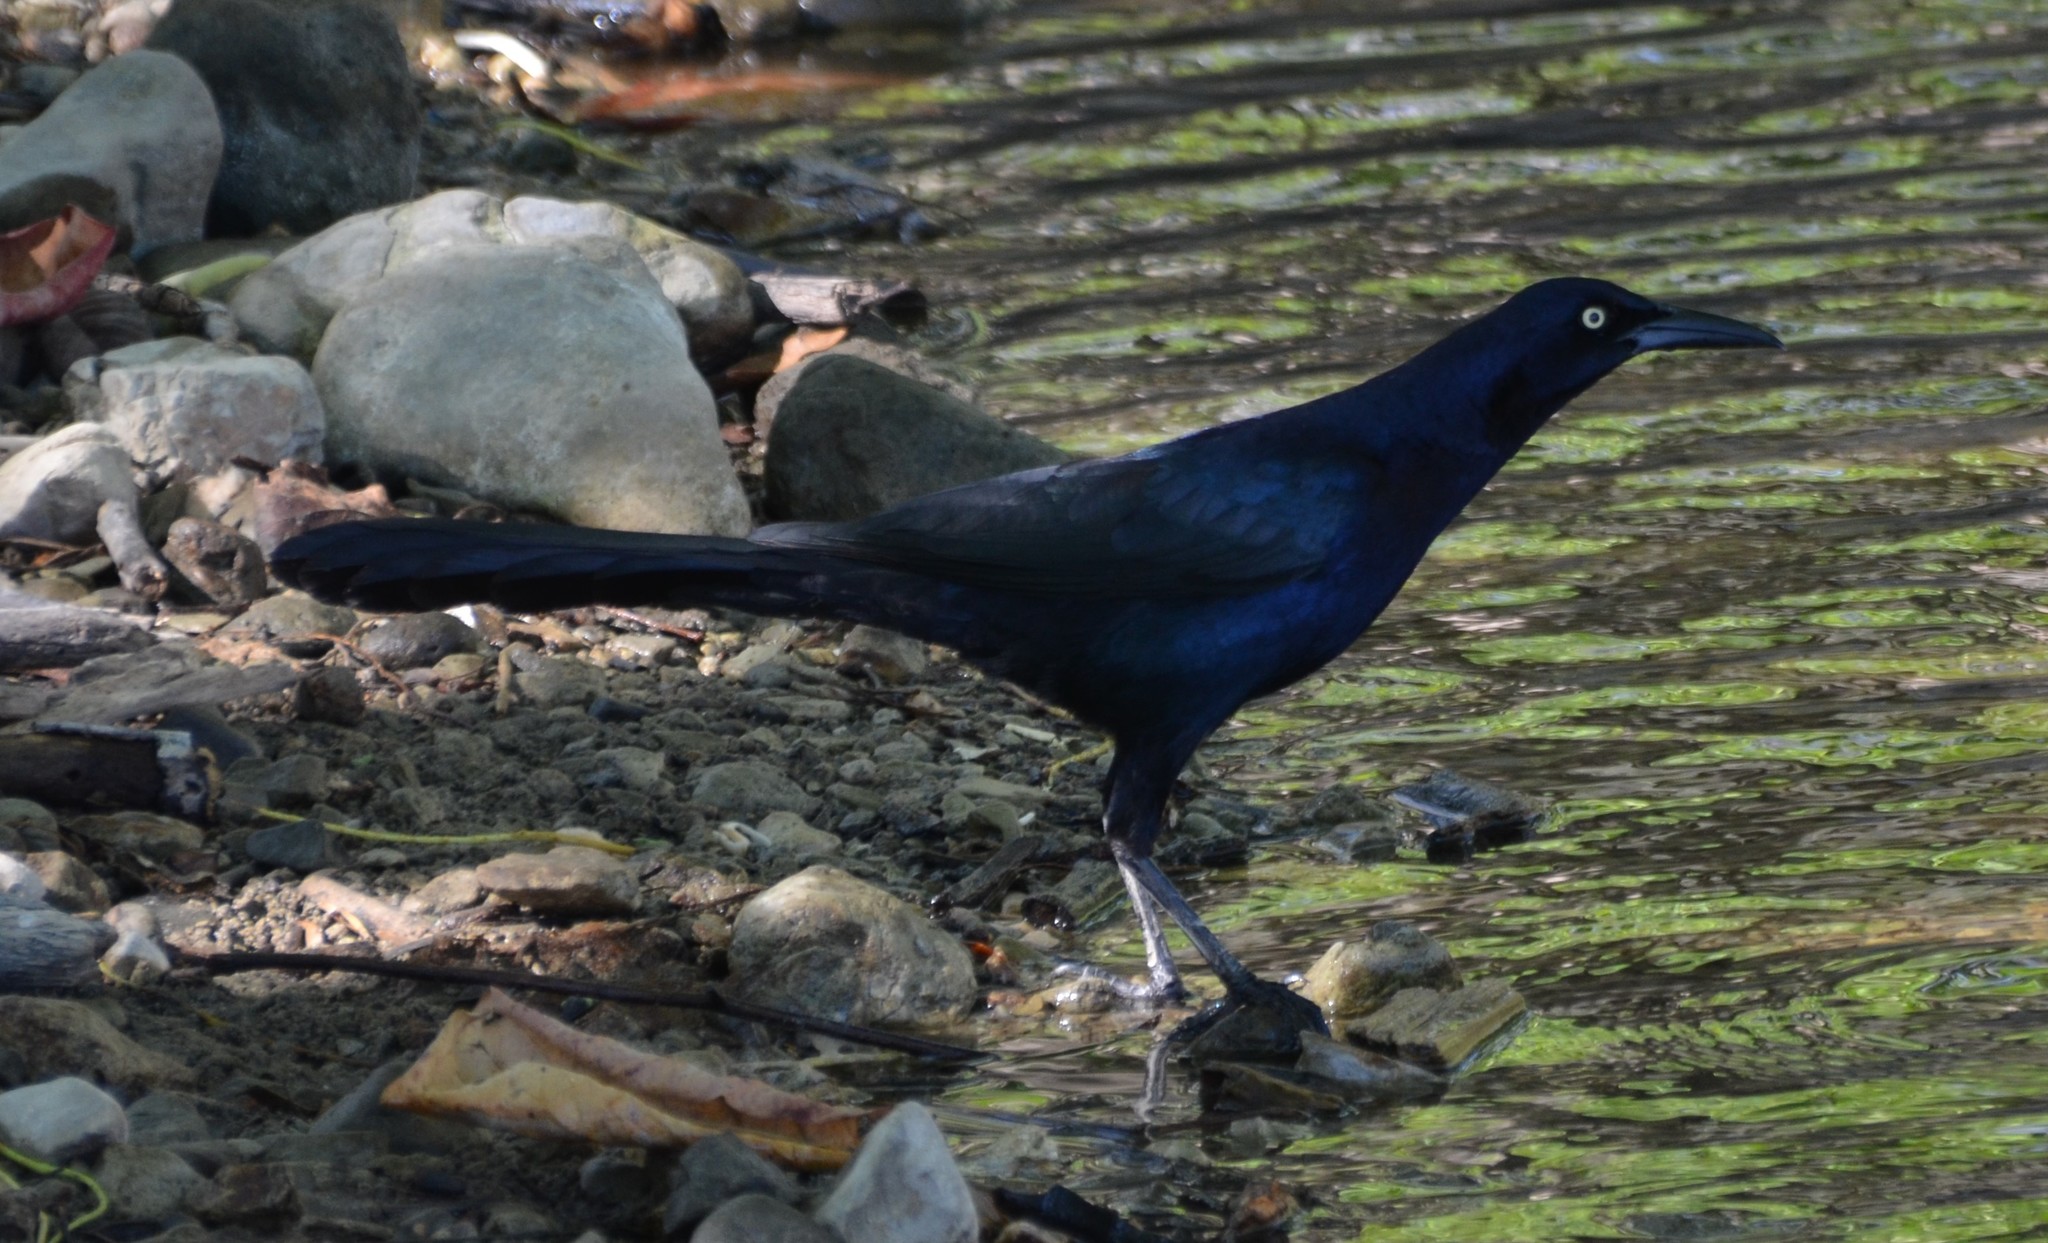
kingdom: Animalia
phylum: Chordata
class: Aves
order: Passeriformes
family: Icteridae
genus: Quiscalus
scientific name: Quiscalus mexicanus
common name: Great-tailed grackle
